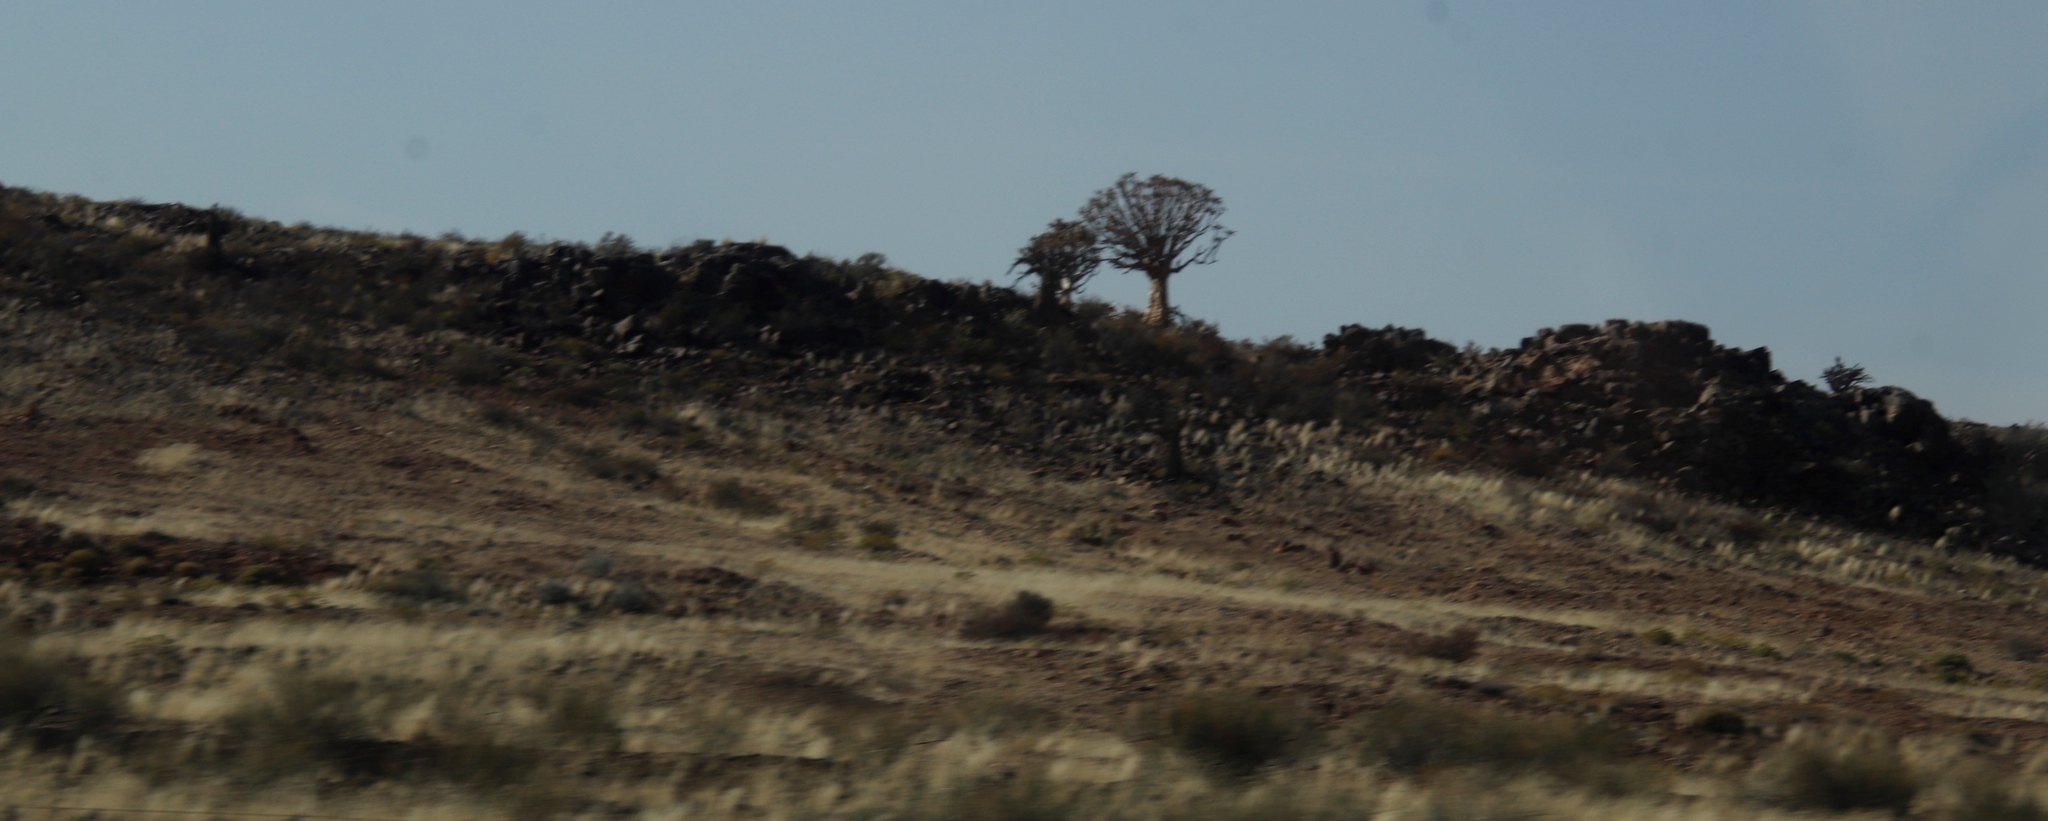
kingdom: Plantae
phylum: Tracheophyta
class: Liliopsida
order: Asparagales
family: Asphodelaceae
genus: Aloidendron
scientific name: Aloidendron dichotomum
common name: Quiver tree
